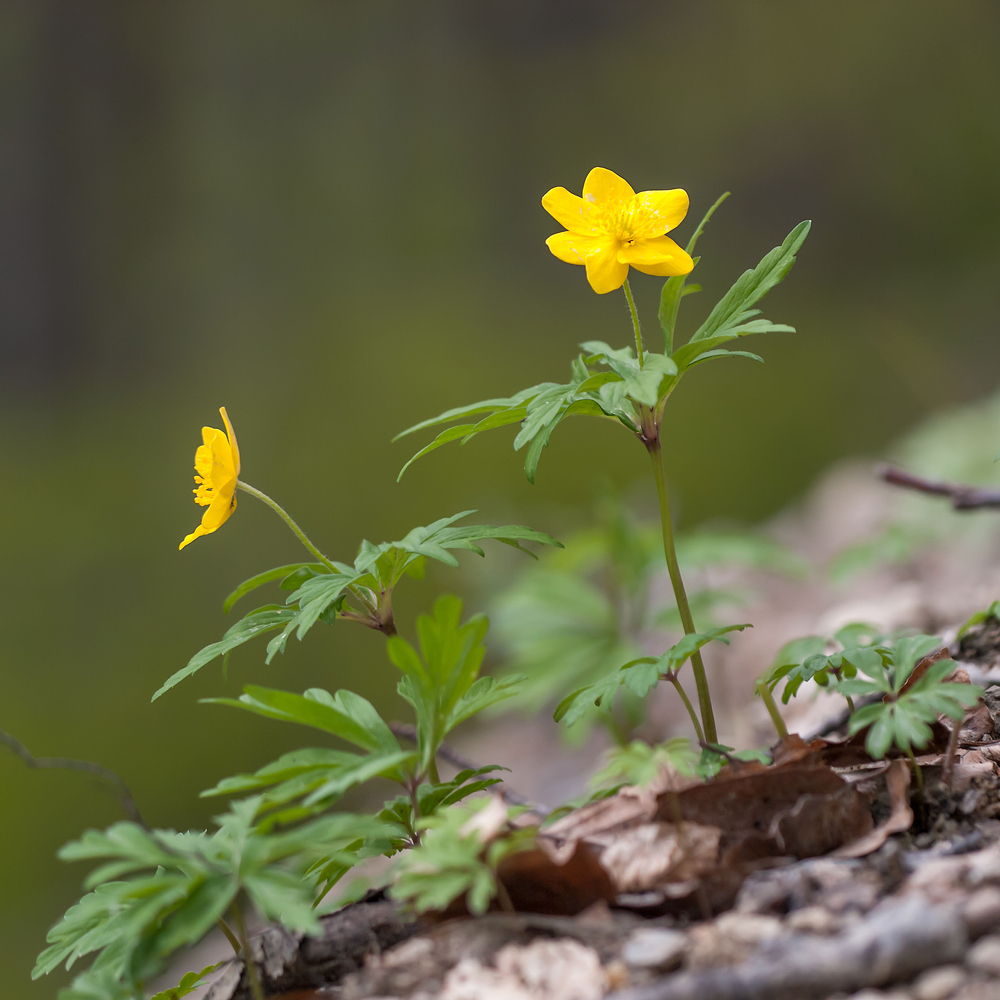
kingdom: Plantae
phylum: Tracheophyta
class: Magnoliopsida
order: Ranunculales
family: Ranunculaceae
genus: Anemone
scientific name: Anemone ranunculoides
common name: Yellow anemone
